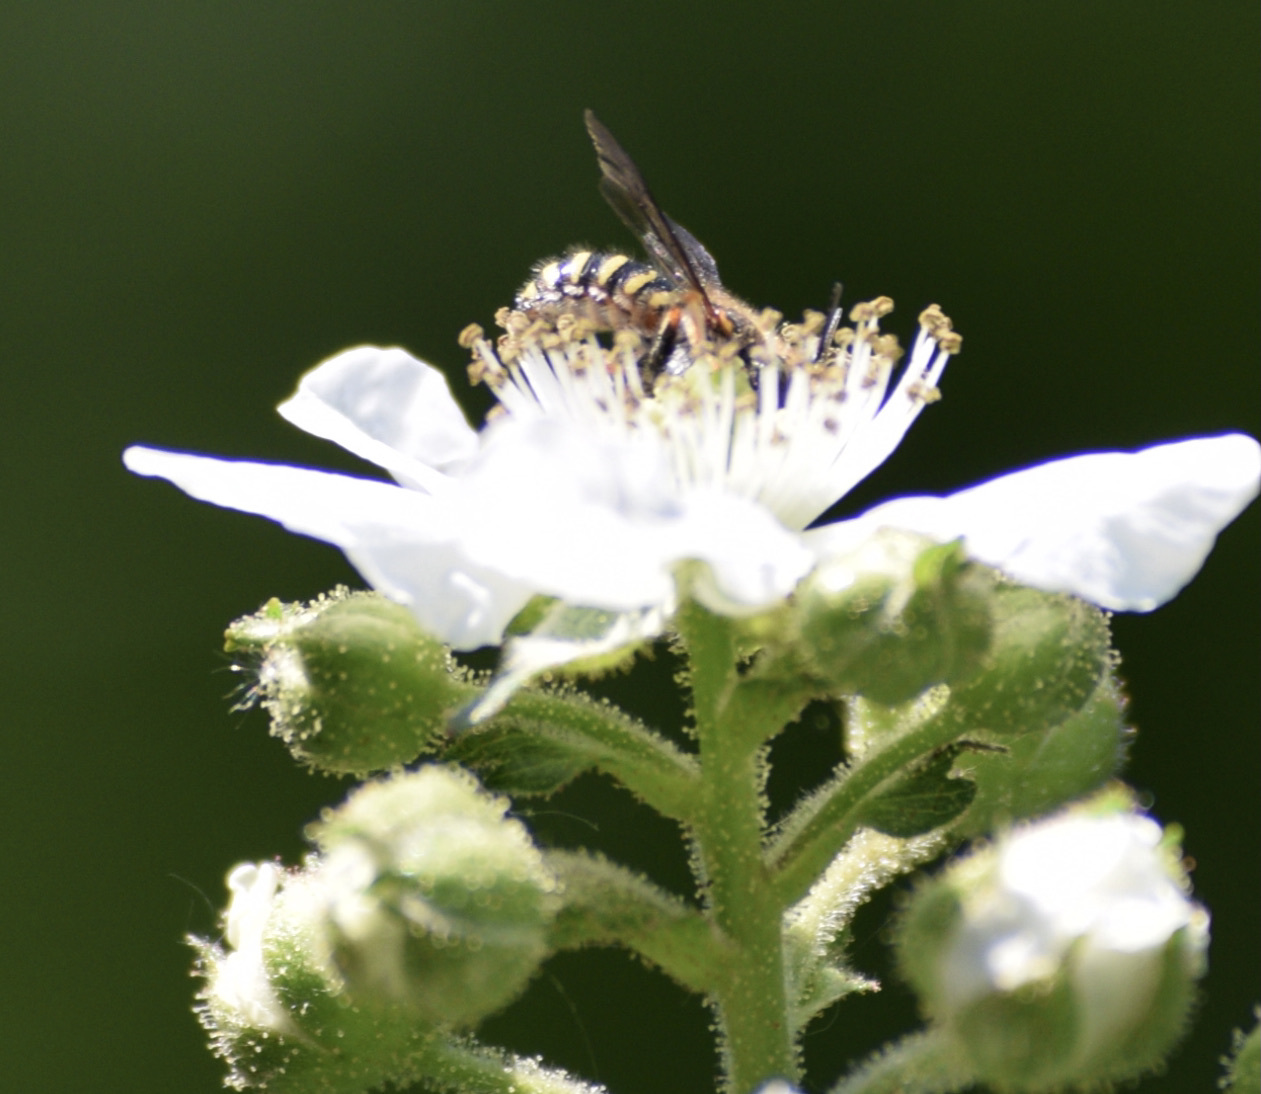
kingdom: Animalia
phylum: Arthropoda
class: Insecta
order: Hymenoptera
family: Megachilidae
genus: Anthidium
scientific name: Anthidium manicatum
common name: Wool carder bee
